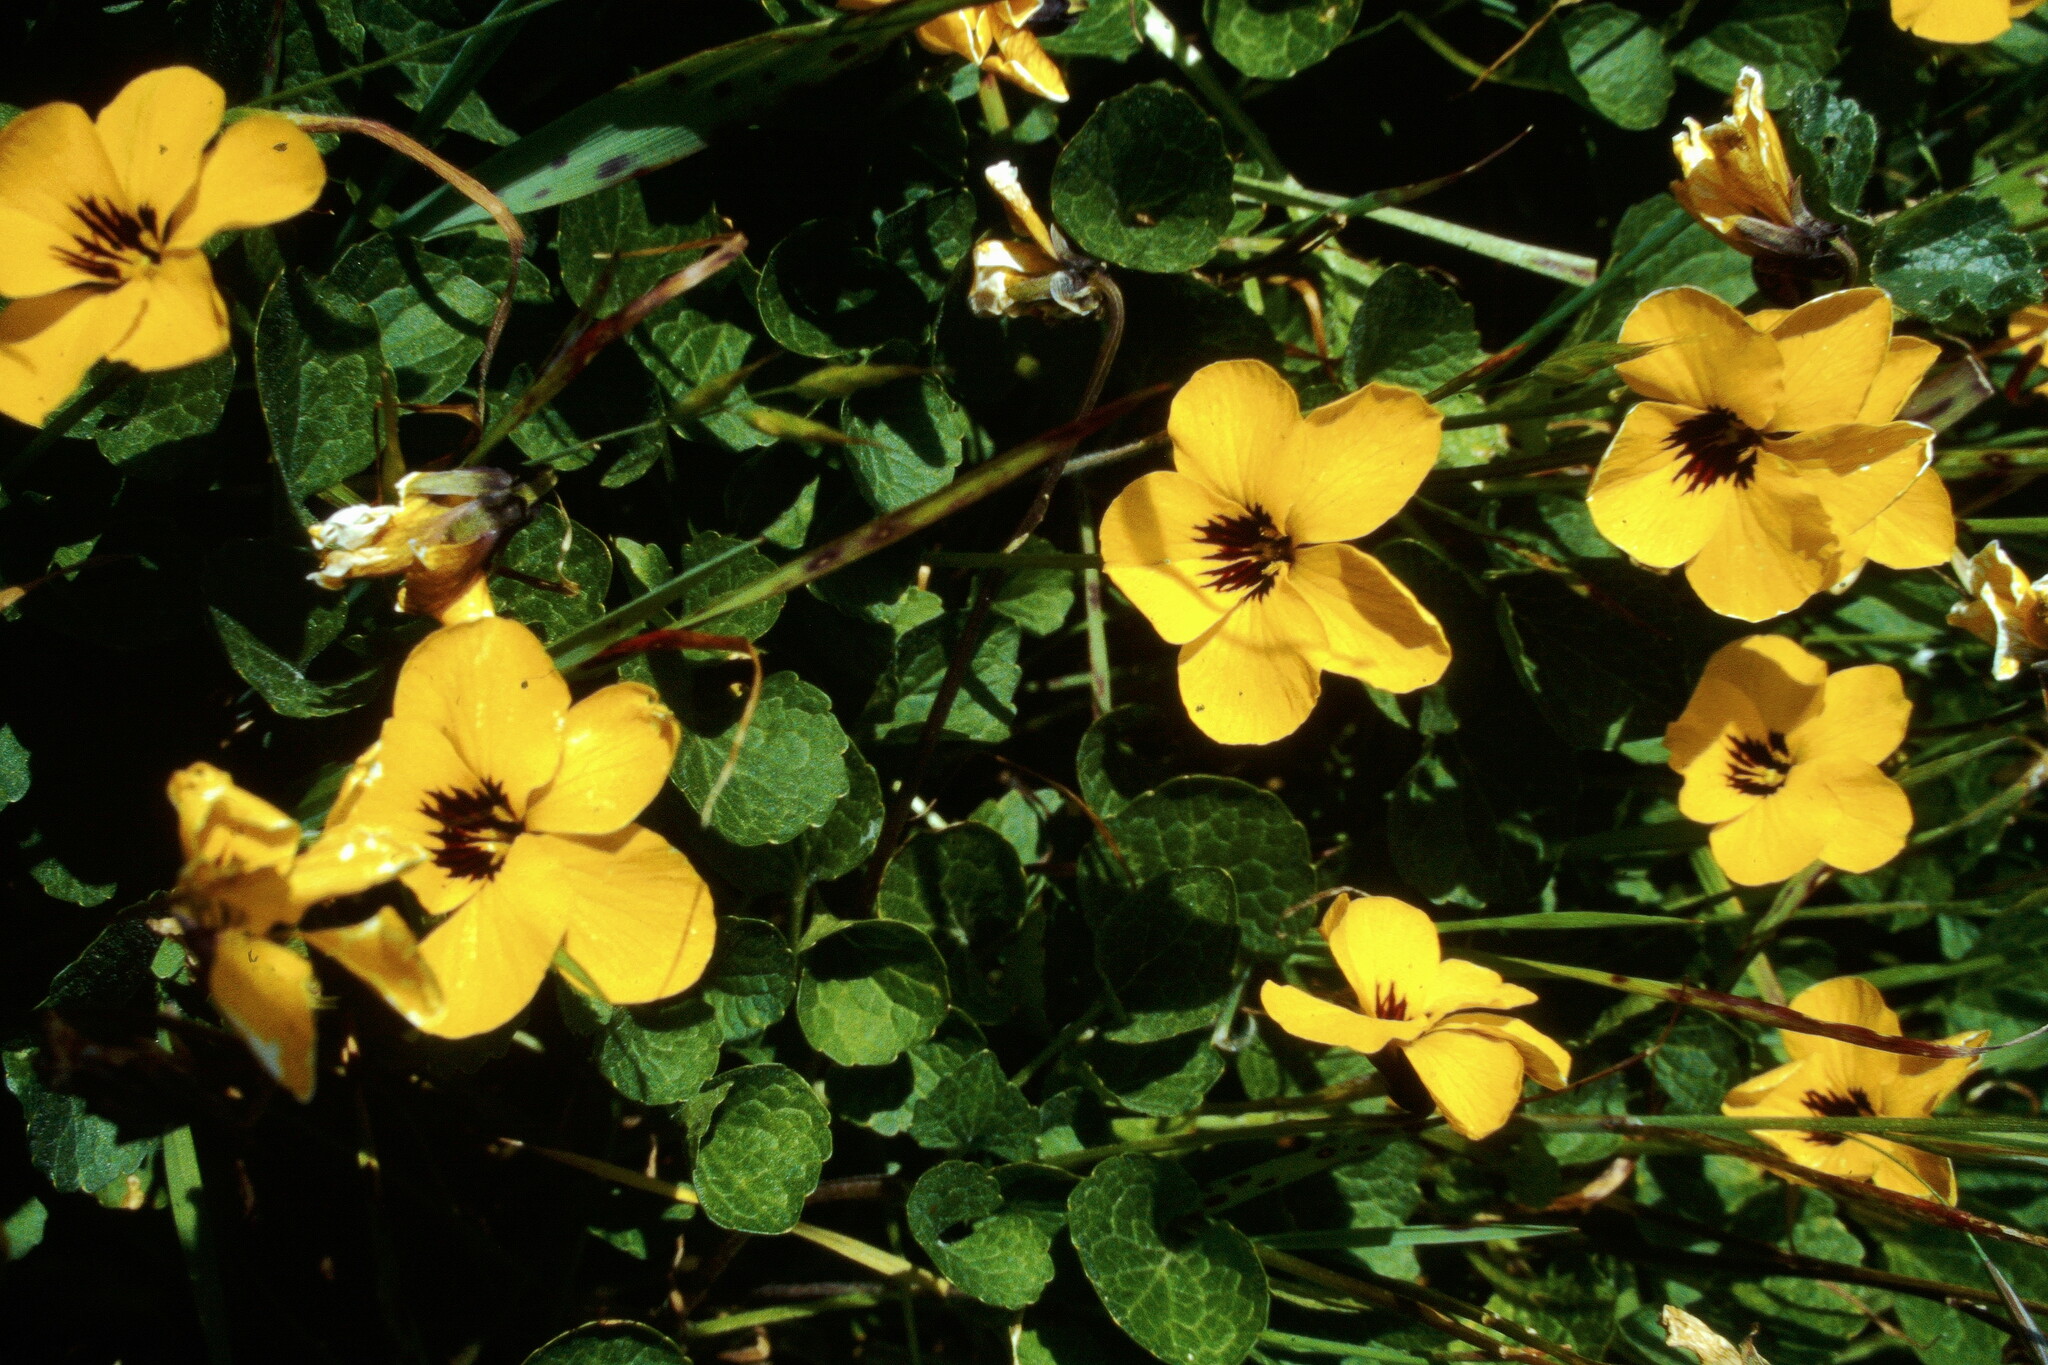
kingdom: Plantae
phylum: Tracheophyta
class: Magnoliopsida
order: Malpighiales
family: Violaceae
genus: Viola
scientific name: Viola pedunculata
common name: California golden violet
